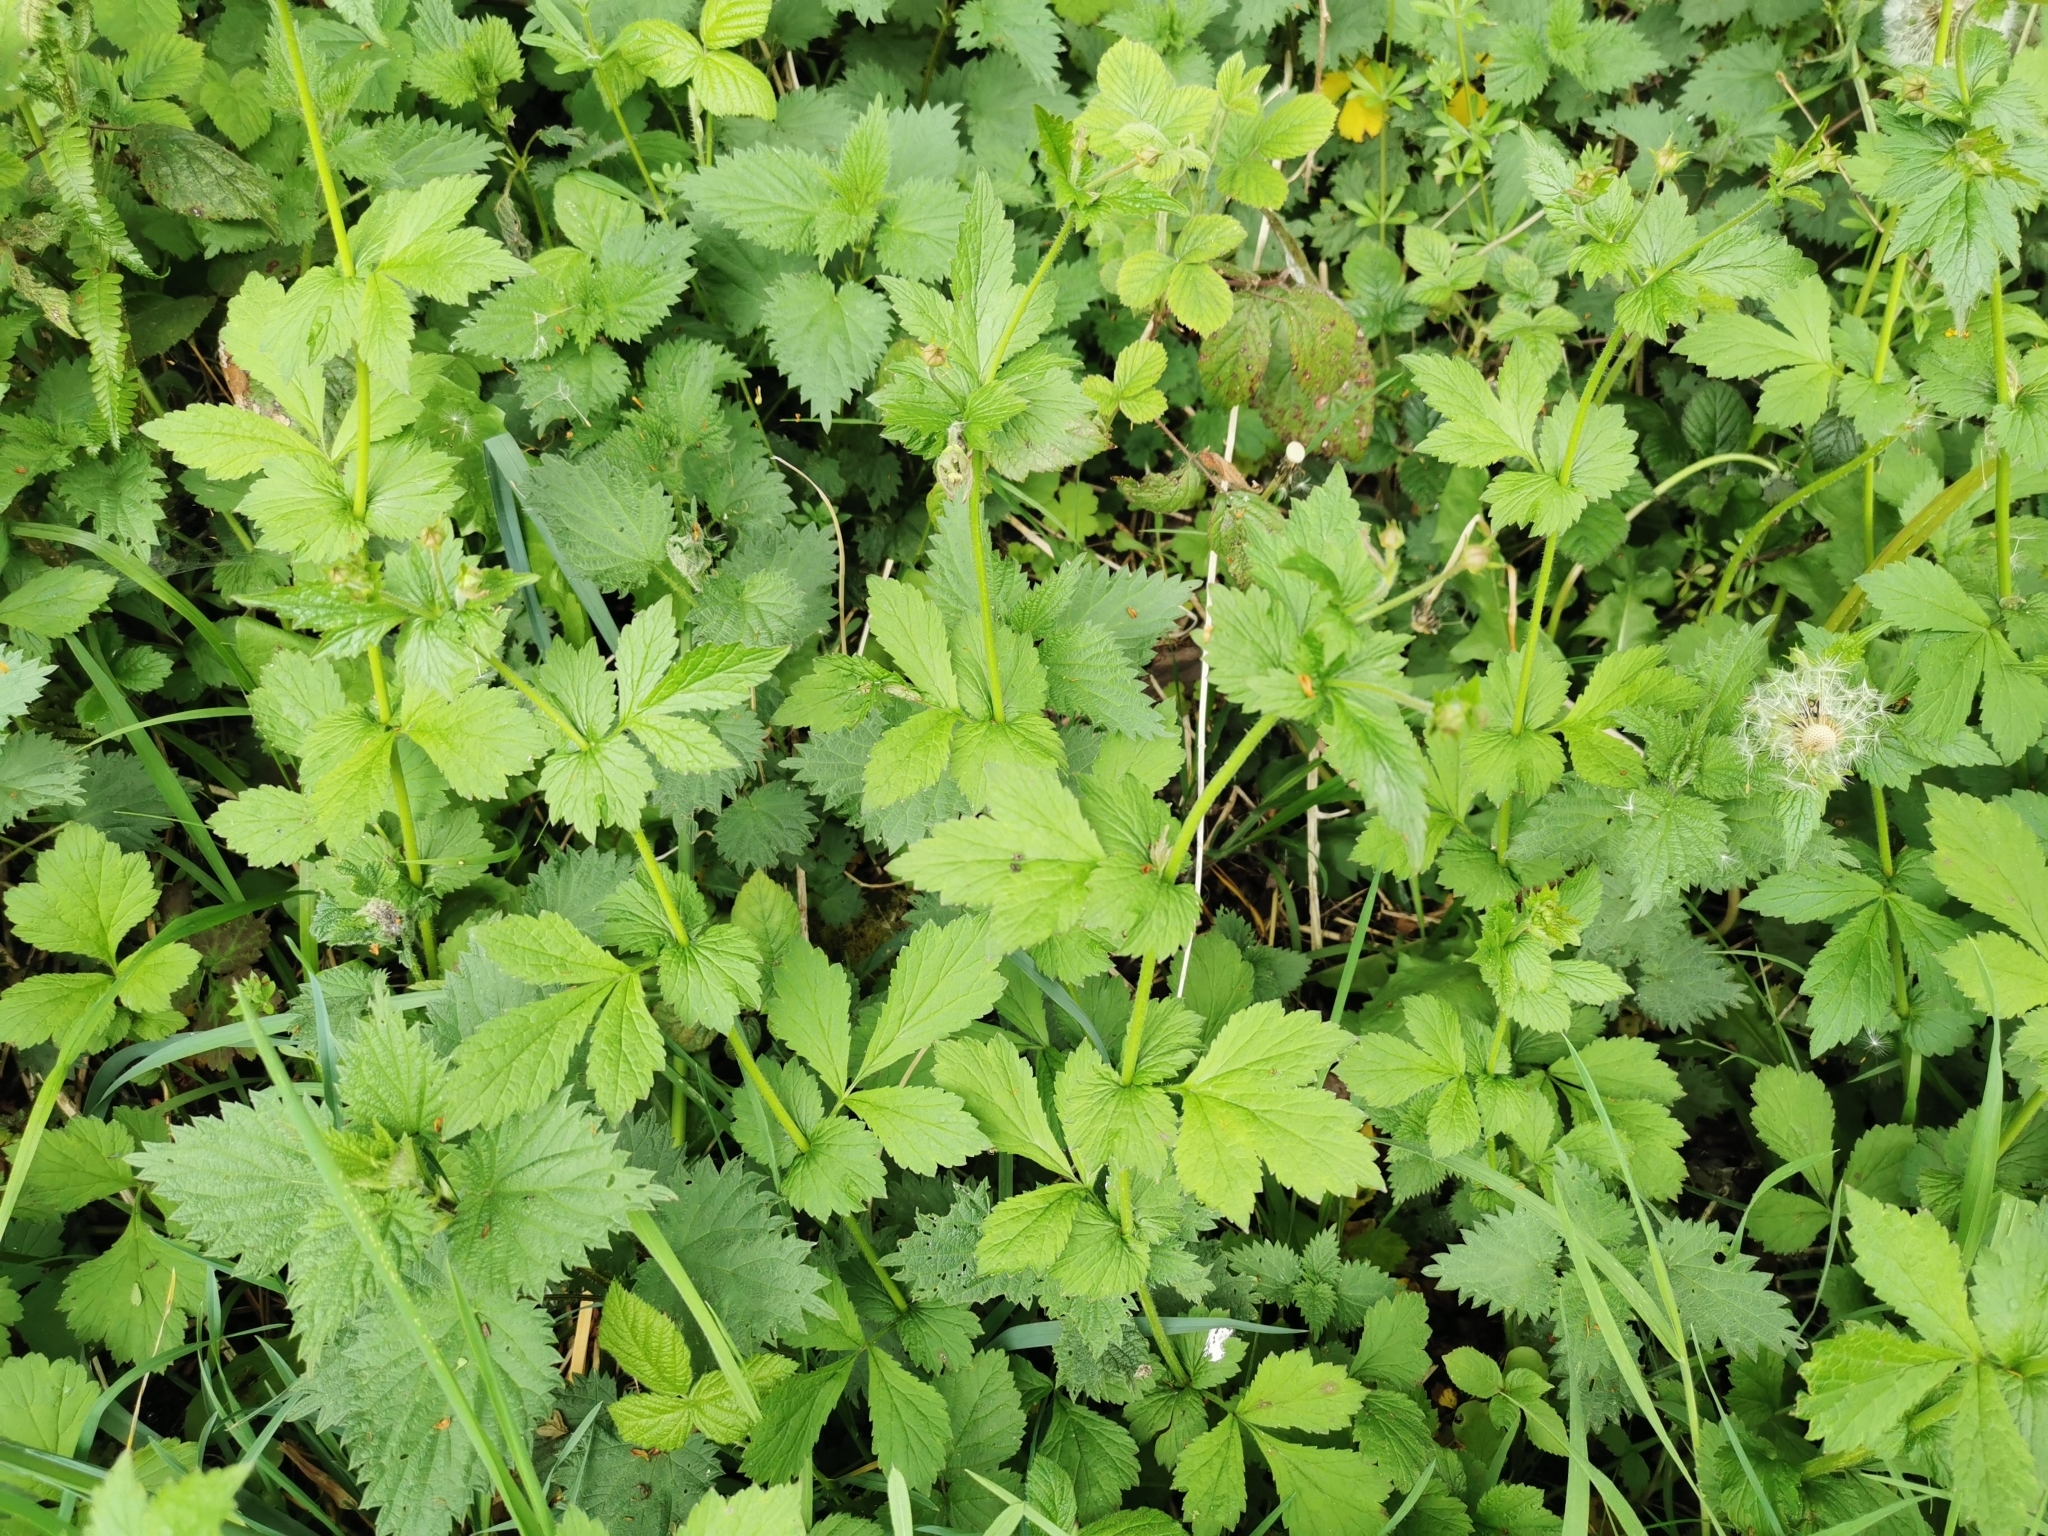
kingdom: Plantae
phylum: Tracheophyta
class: Magnoliopsida
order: Rosales
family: Rosaceae
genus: Geum
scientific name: Geum urbanum
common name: Wood avens
